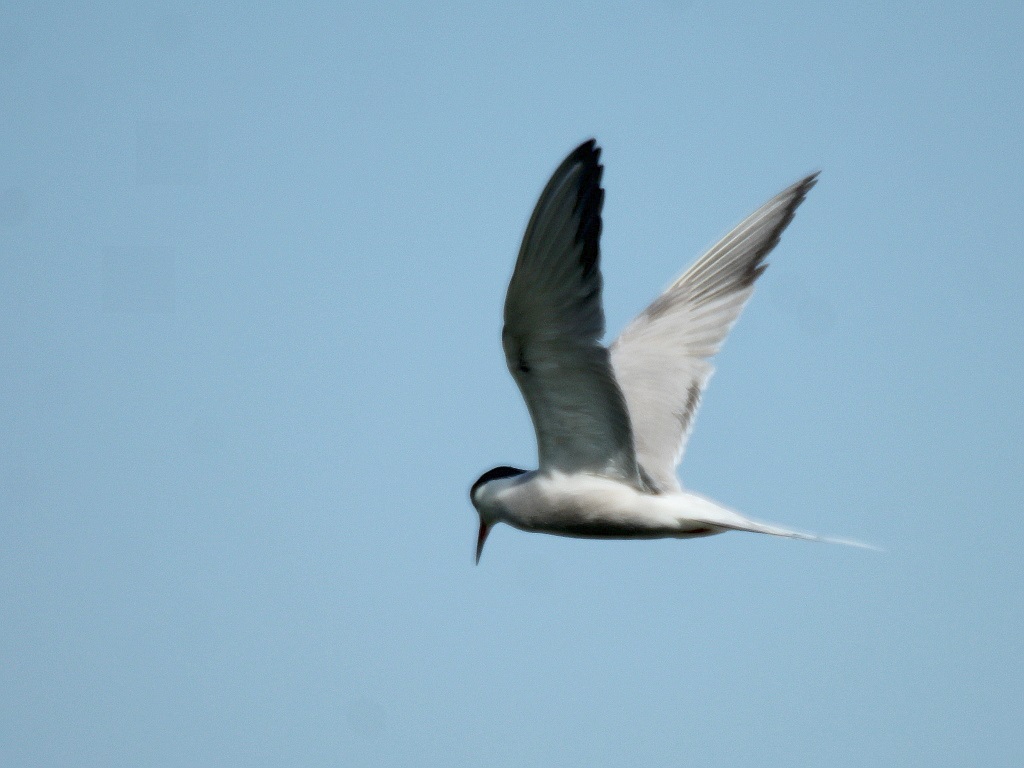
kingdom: Animalia
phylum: Chordata
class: Aves
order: Charadriiformes
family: Laridae
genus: Sterna
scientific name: Sterna hirundo
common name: Common tern
